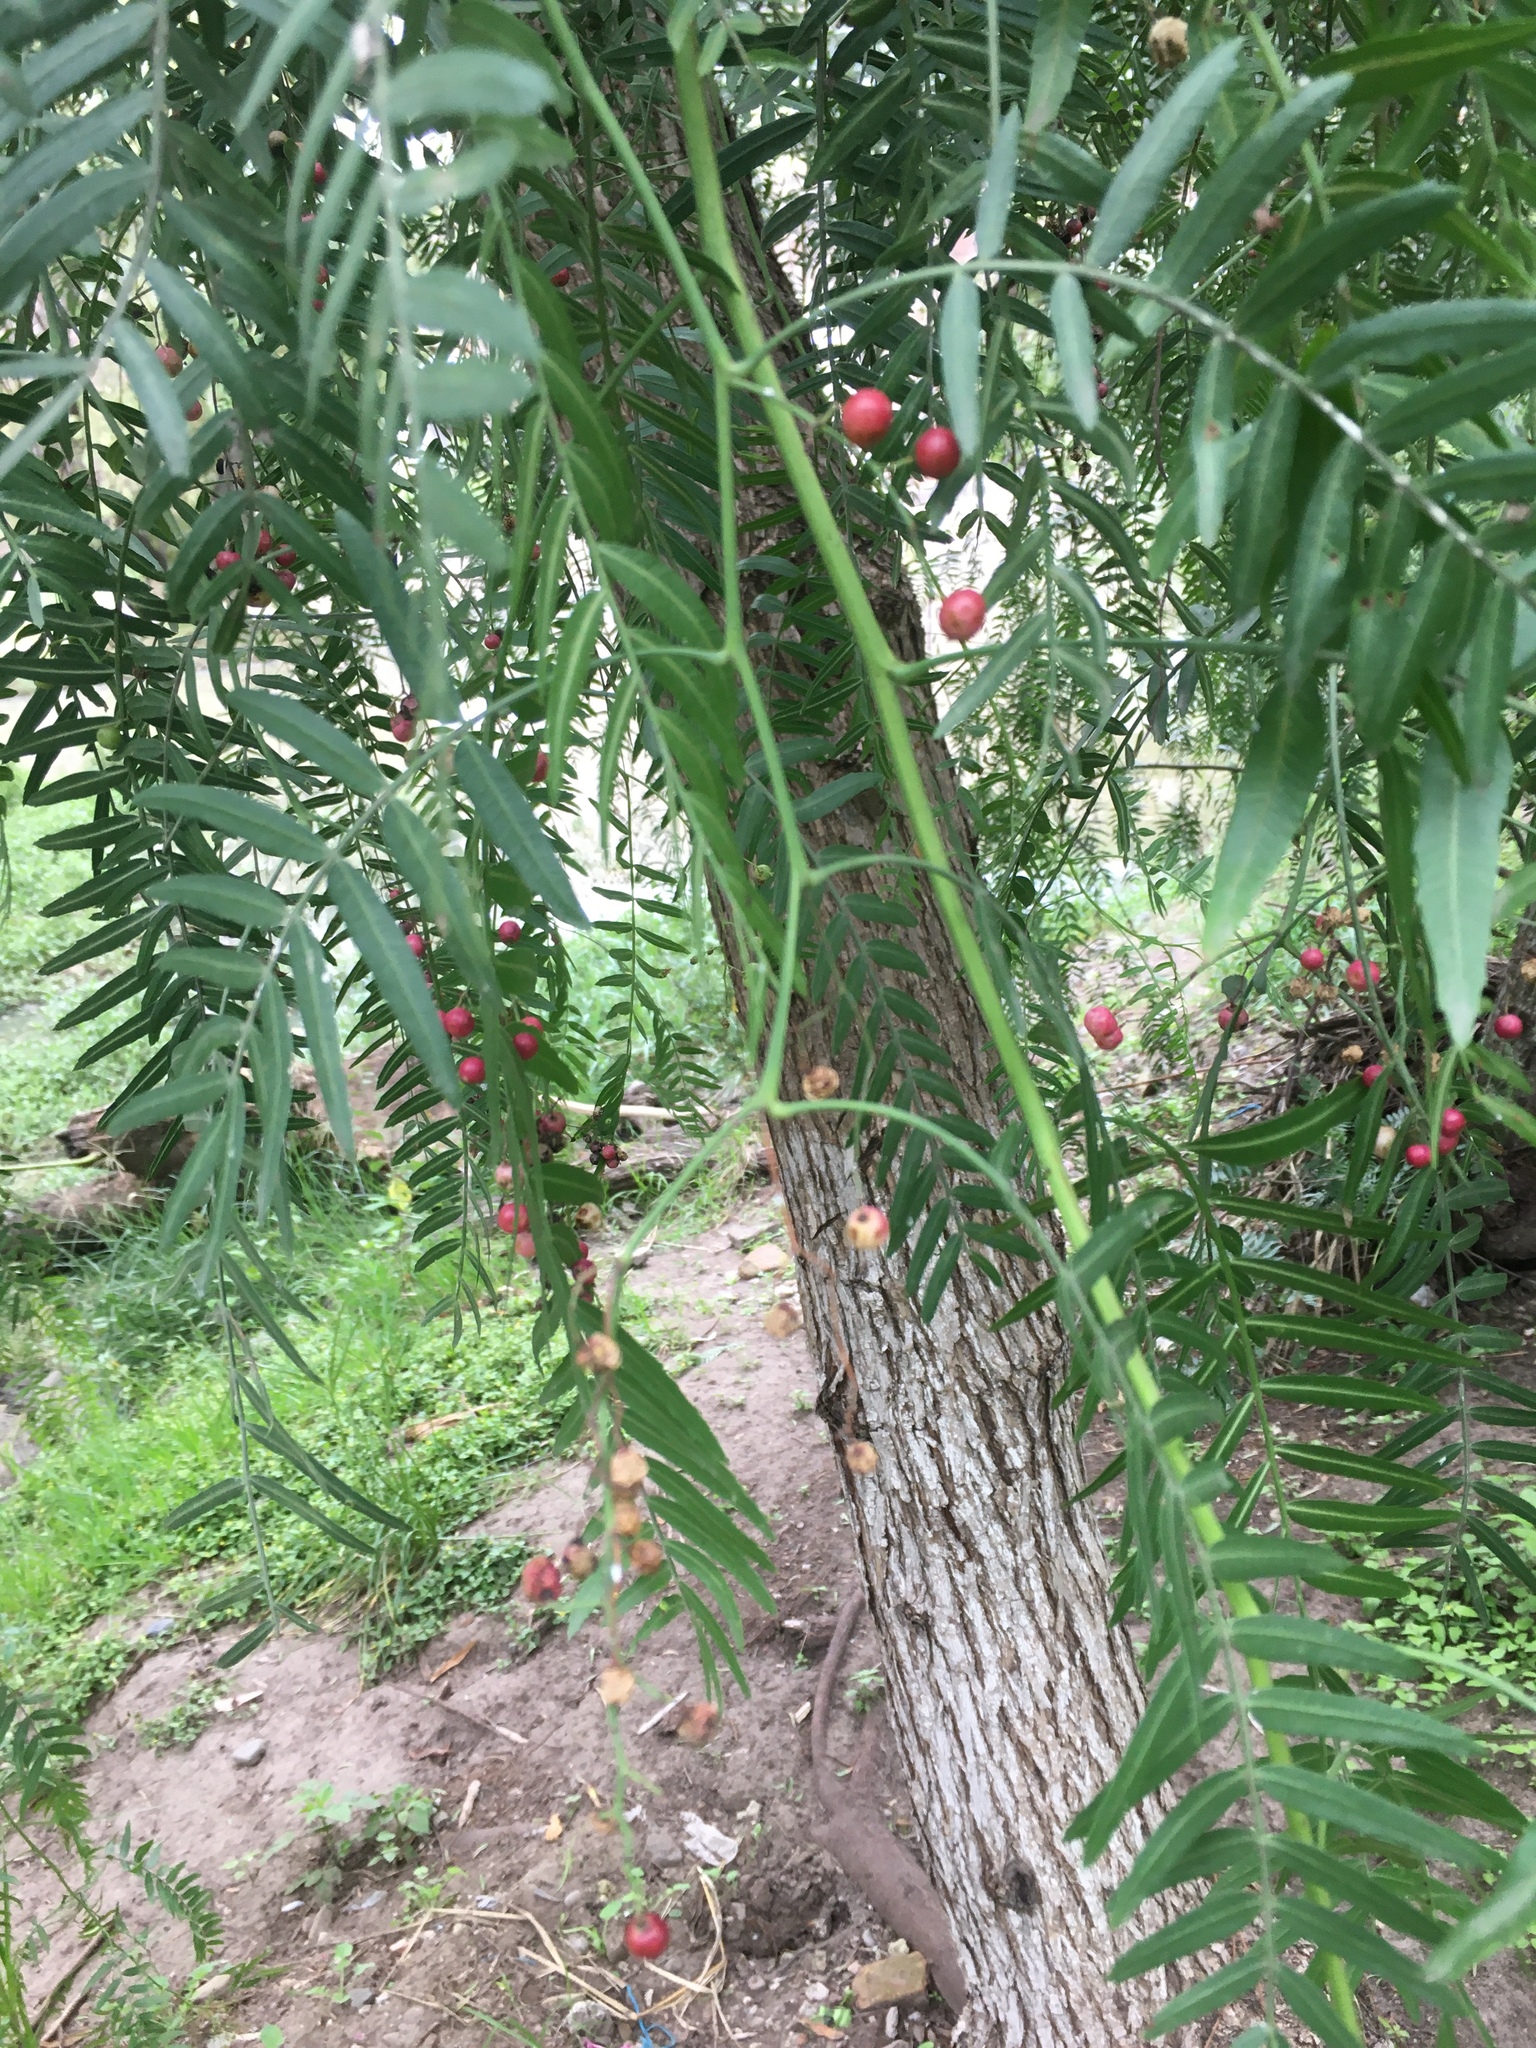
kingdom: Plantae
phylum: Tracheophyta
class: Magnoliopsida
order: Sapindales
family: Anacardiaceae
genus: Schinus
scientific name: Schinus molle
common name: Peruvian peppertree
